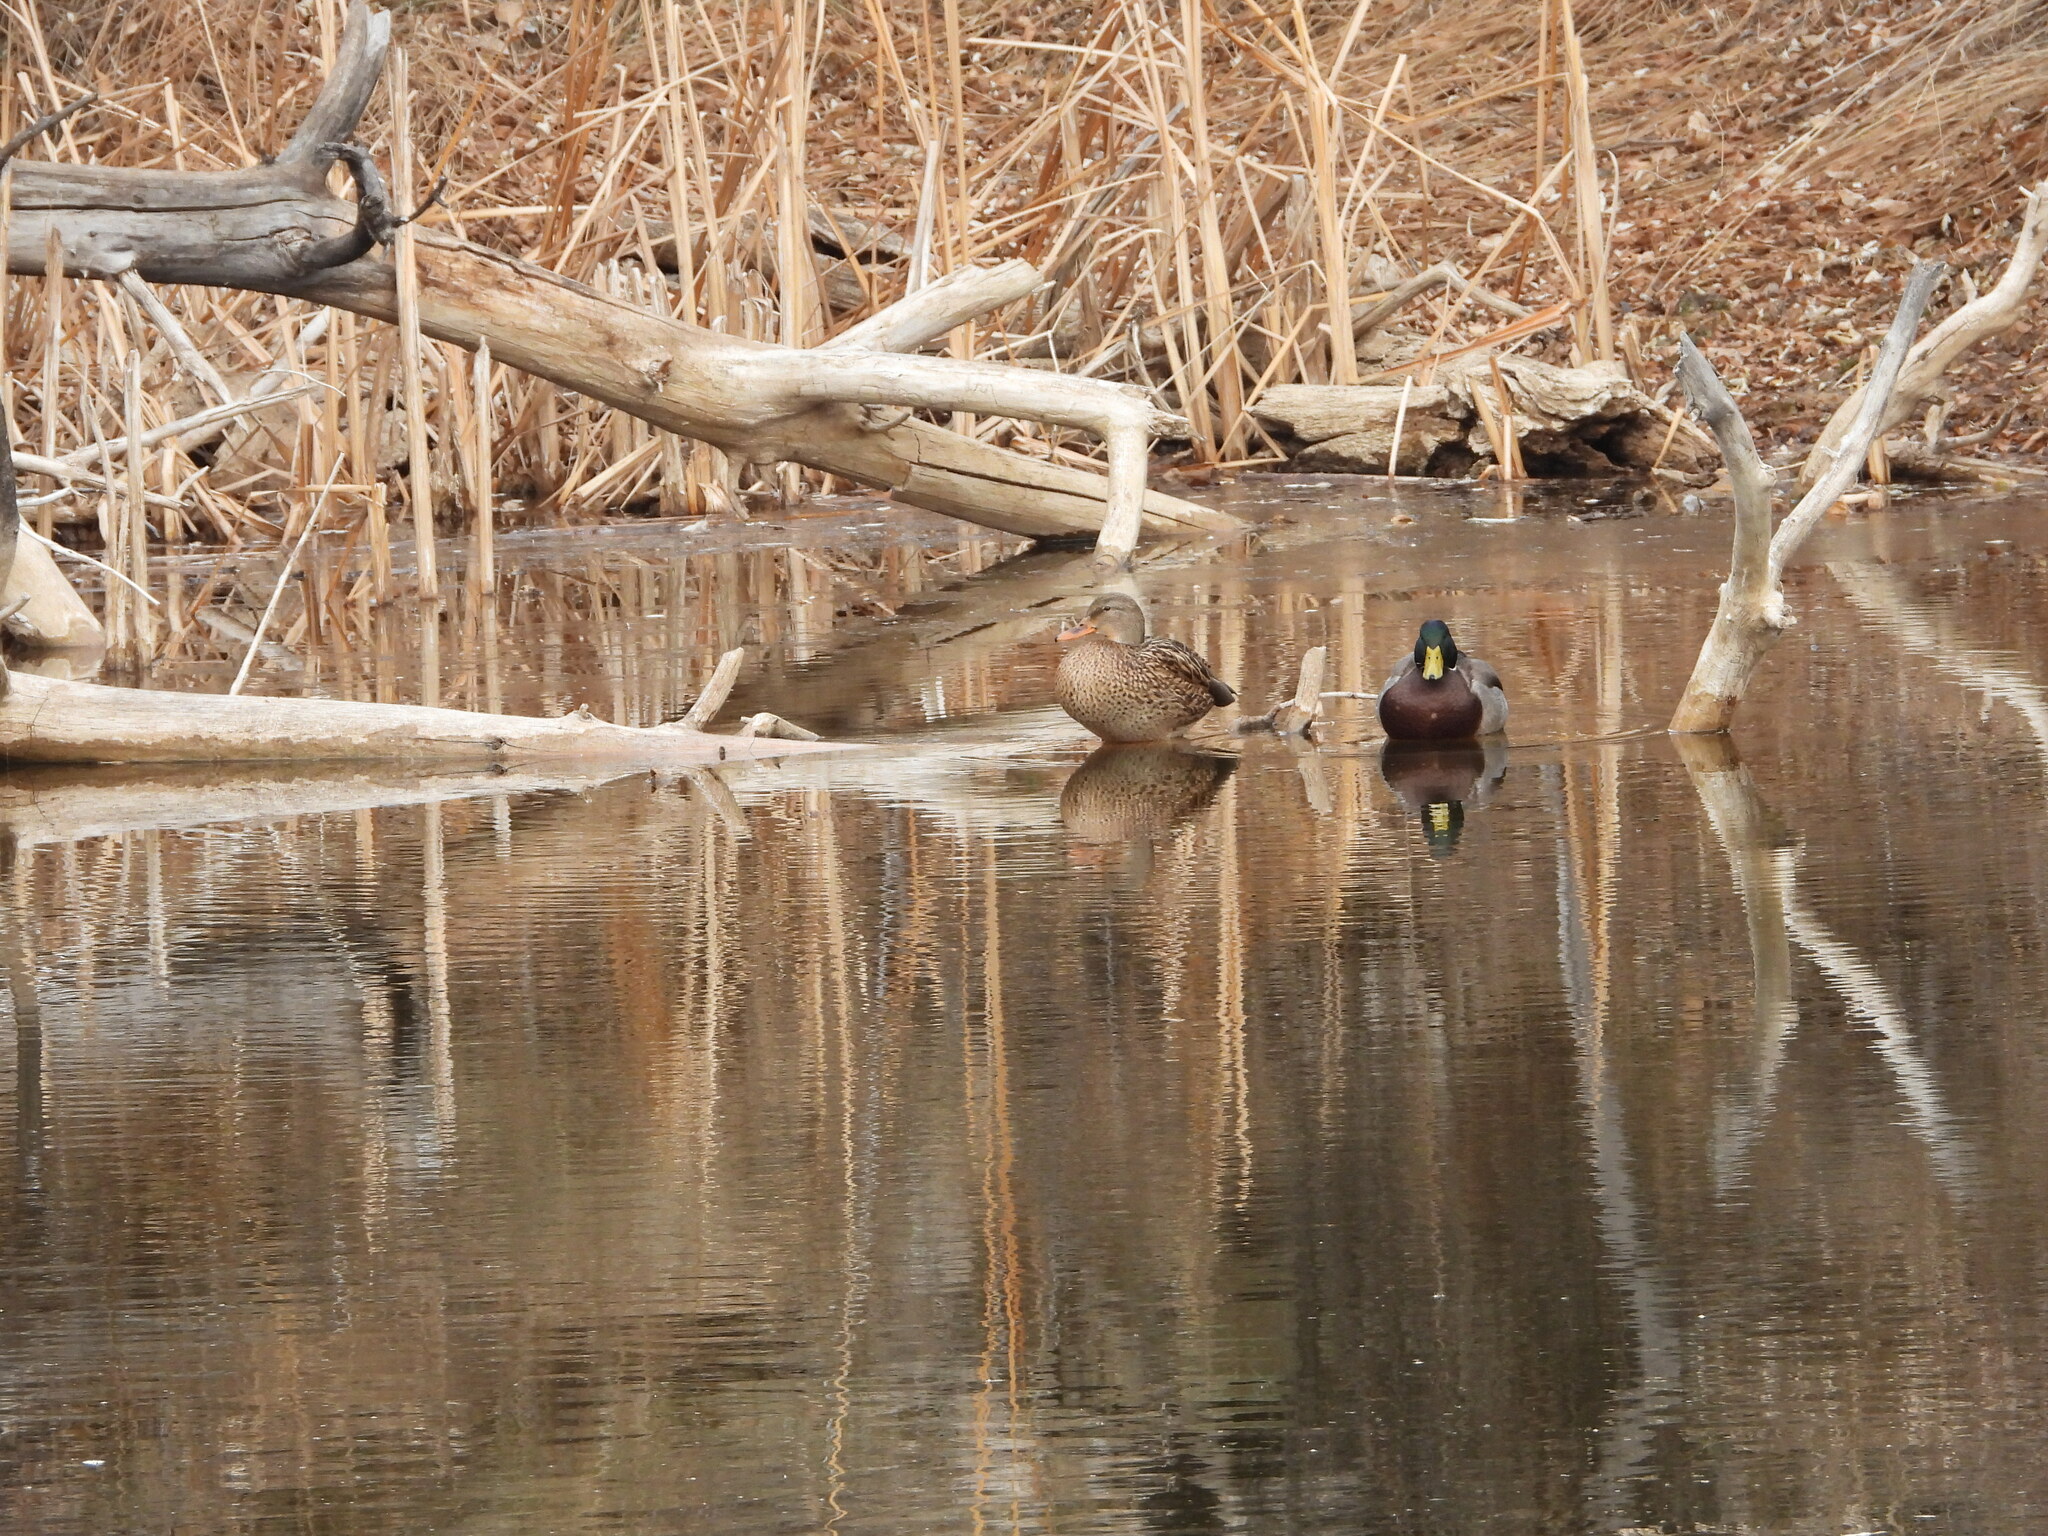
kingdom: Animalia
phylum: Chordata
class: Aves
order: Anseriformes
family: Anatidae
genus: Anas
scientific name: Anas platyrhynchos
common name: Mallard
